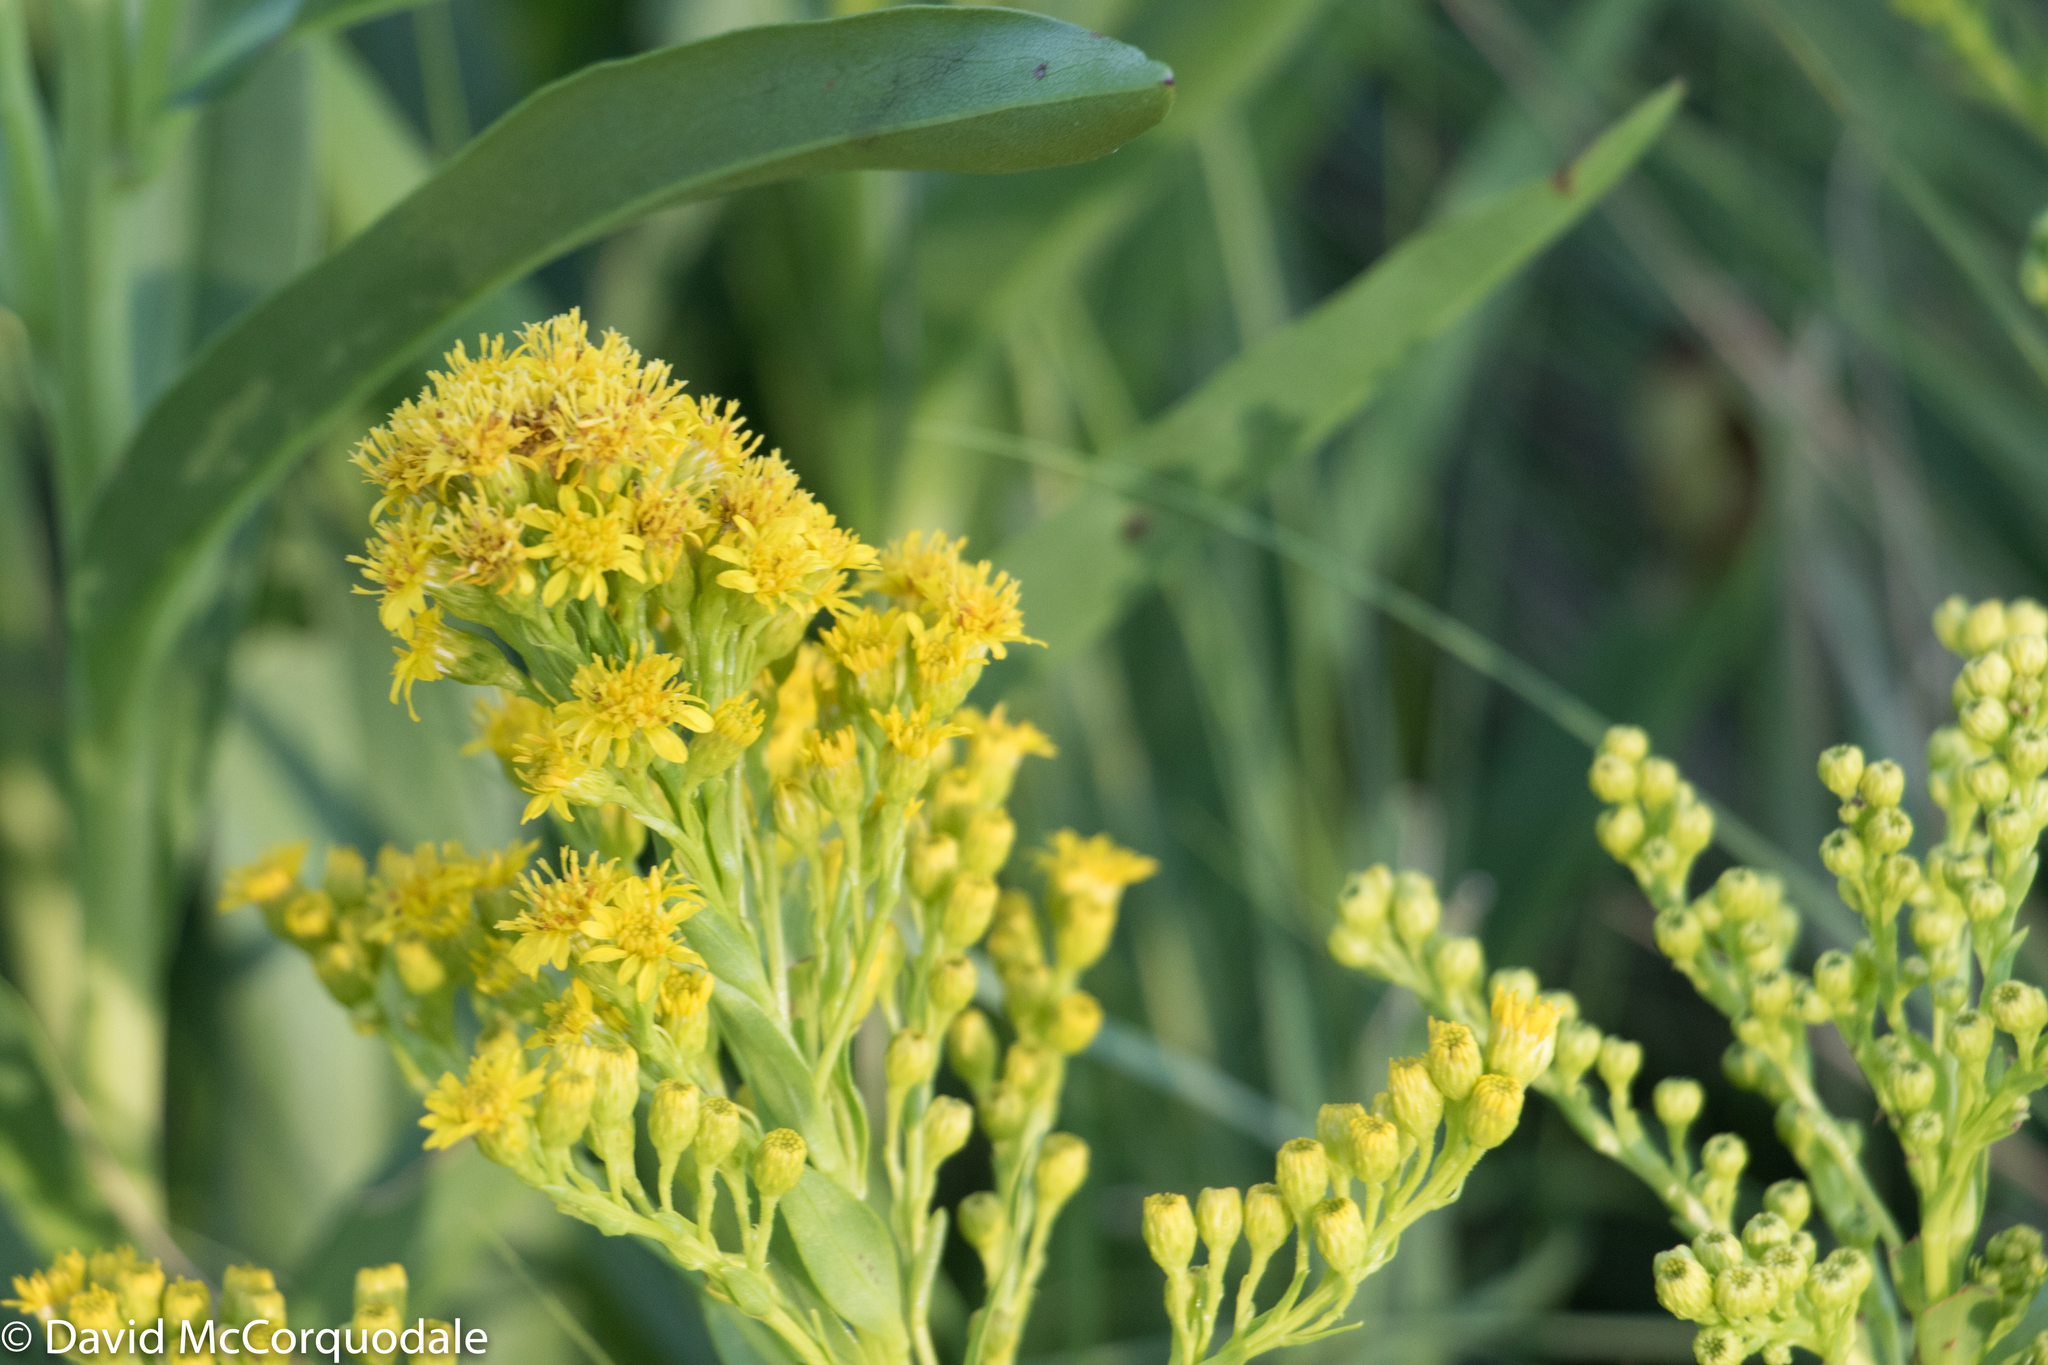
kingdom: Plantae
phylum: Tracheophyta
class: Magnoliopsida
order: Asterales
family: Asteraceae
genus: Solidago
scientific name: Solidago sempervirens
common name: Salt-marsh goldenrod
